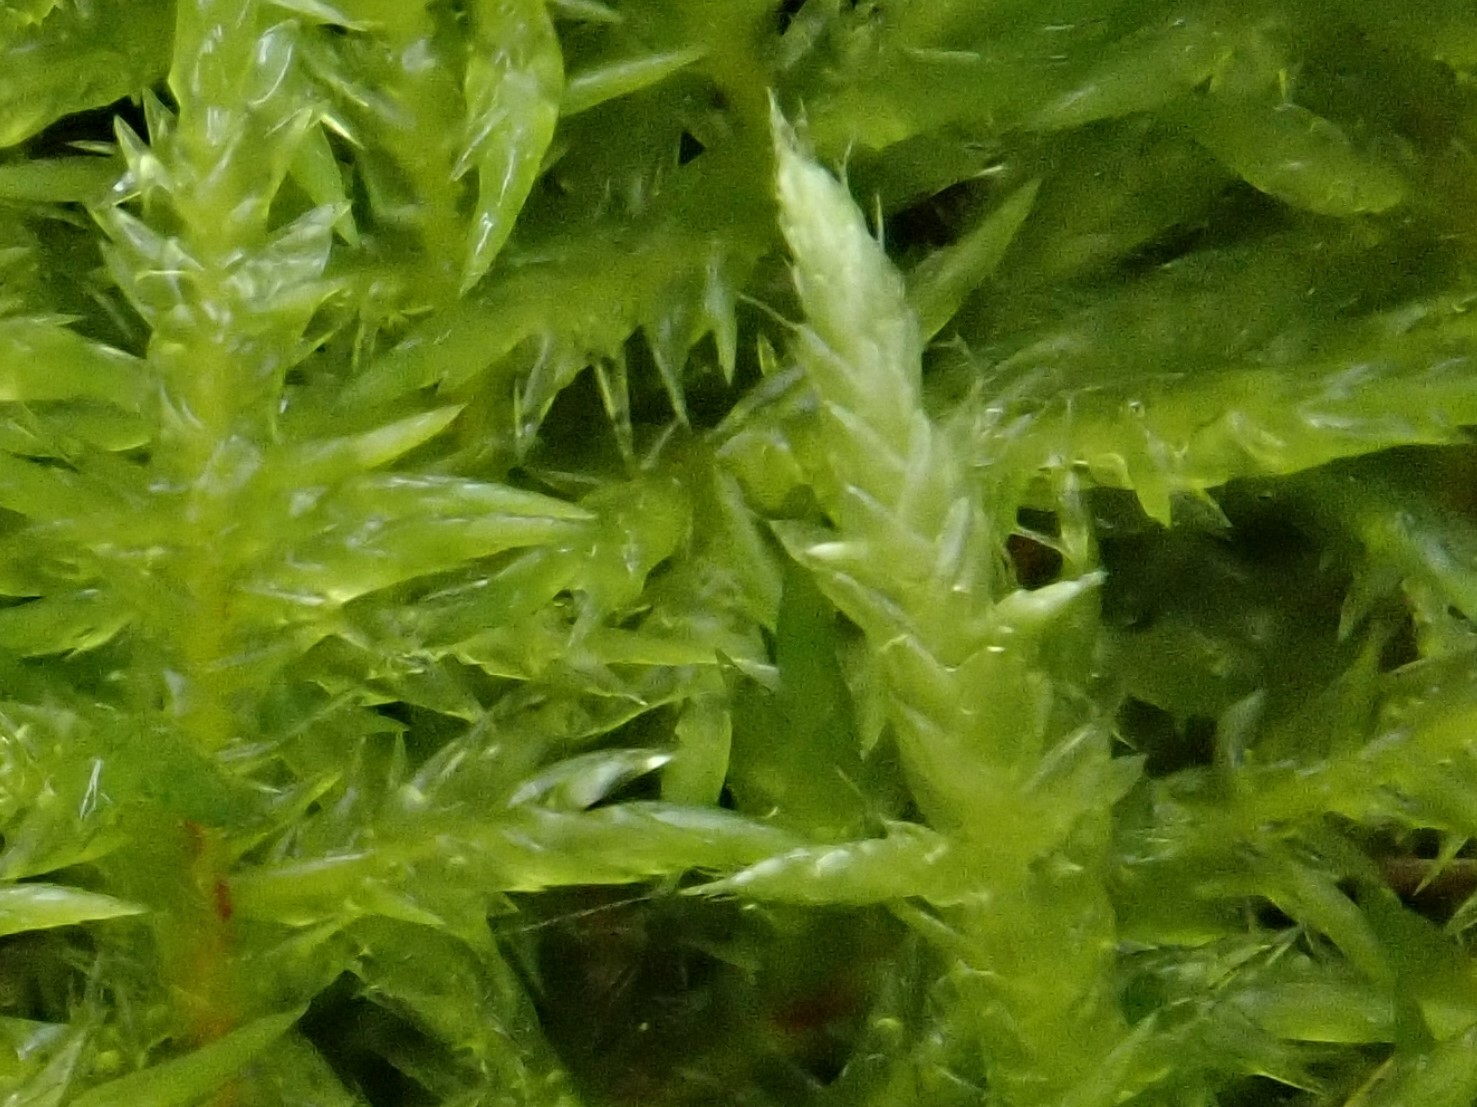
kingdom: Plantae
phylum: Bryophyta
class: Bryopsida
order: Hypnales
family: Brachytheciaceae
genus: Cirriphyllum
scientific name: Cirriphyllum piliferum
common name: Hair-pointed moss
